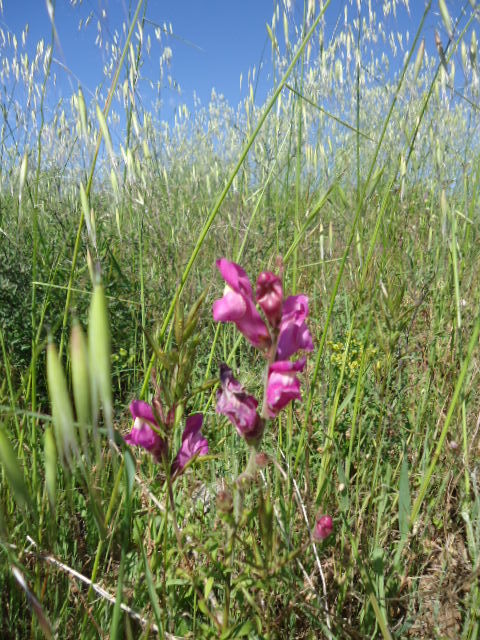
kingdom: Plantae
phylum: Tracheophyta
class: Magnoliopsida
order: Lamiales
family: Plantaginaceae
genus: Antirrhinum
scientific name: Antirrhinum majus
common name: Snapdragon
